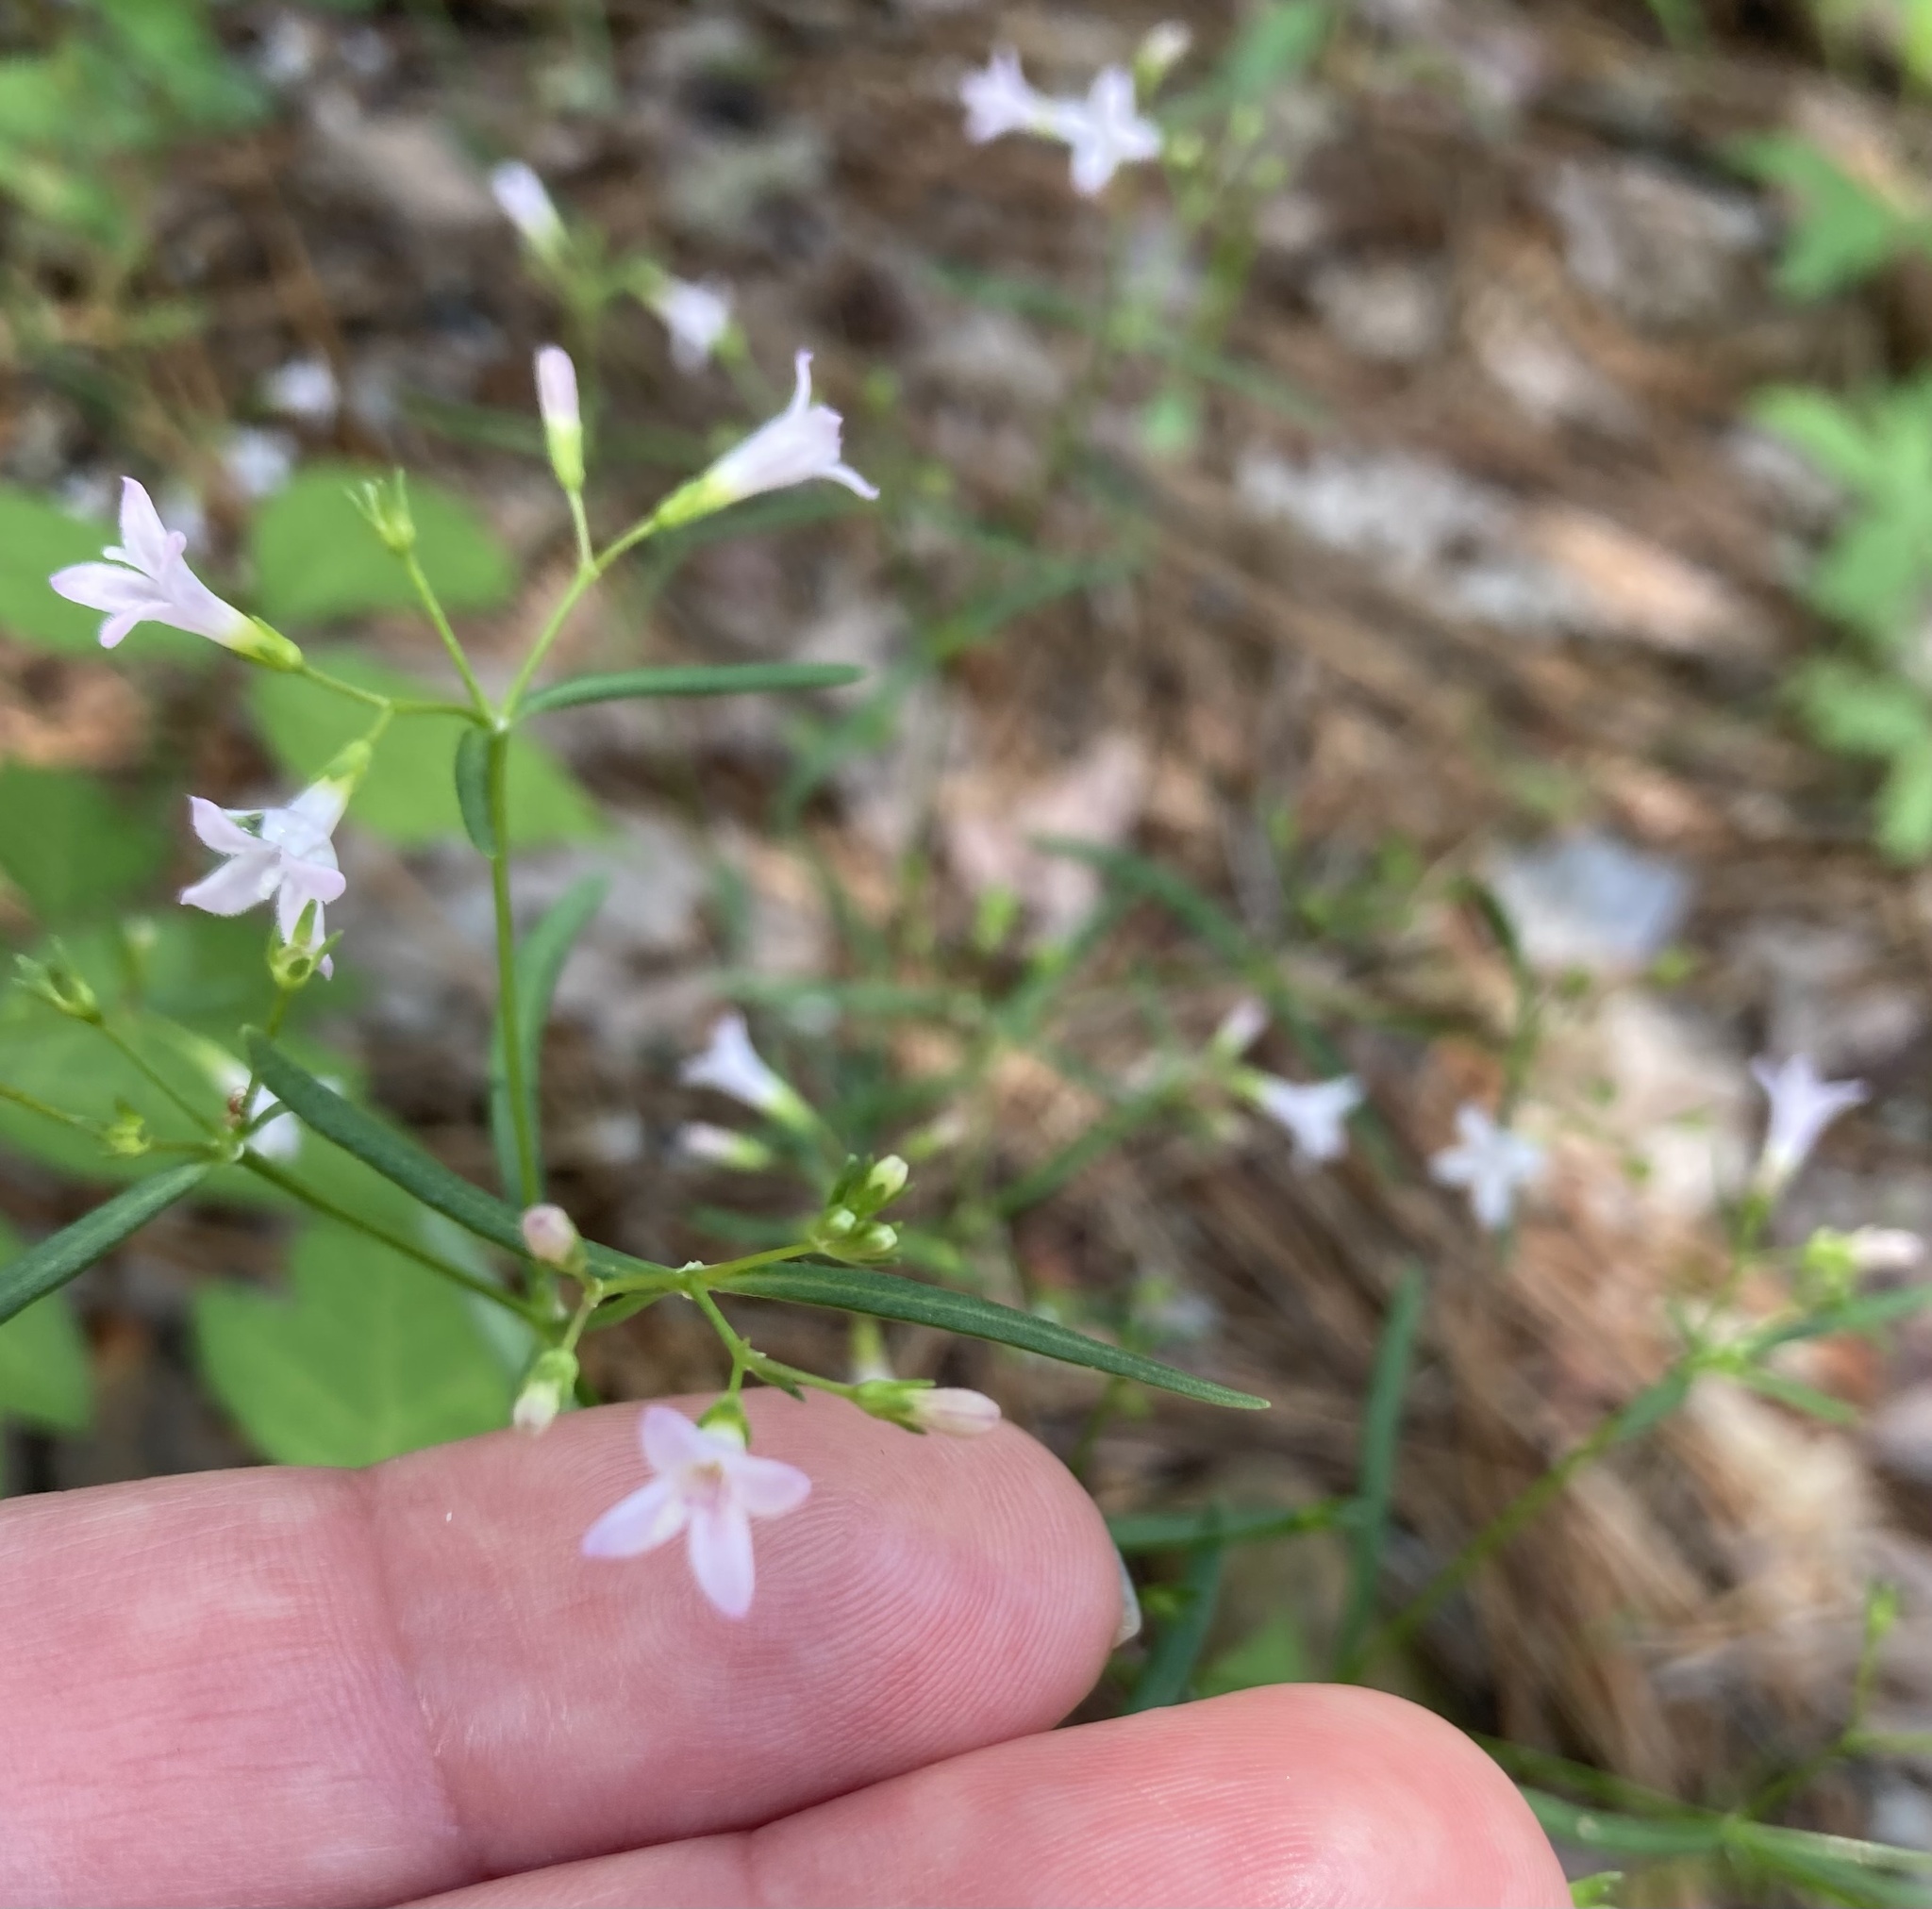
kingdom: Plantae
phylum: Tracheophyta
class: Magnoliopsida
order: Gentianales
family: Rubiaceae
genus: Houstonia
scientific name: Houstonia longifolia
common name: Long-leaved bluets
